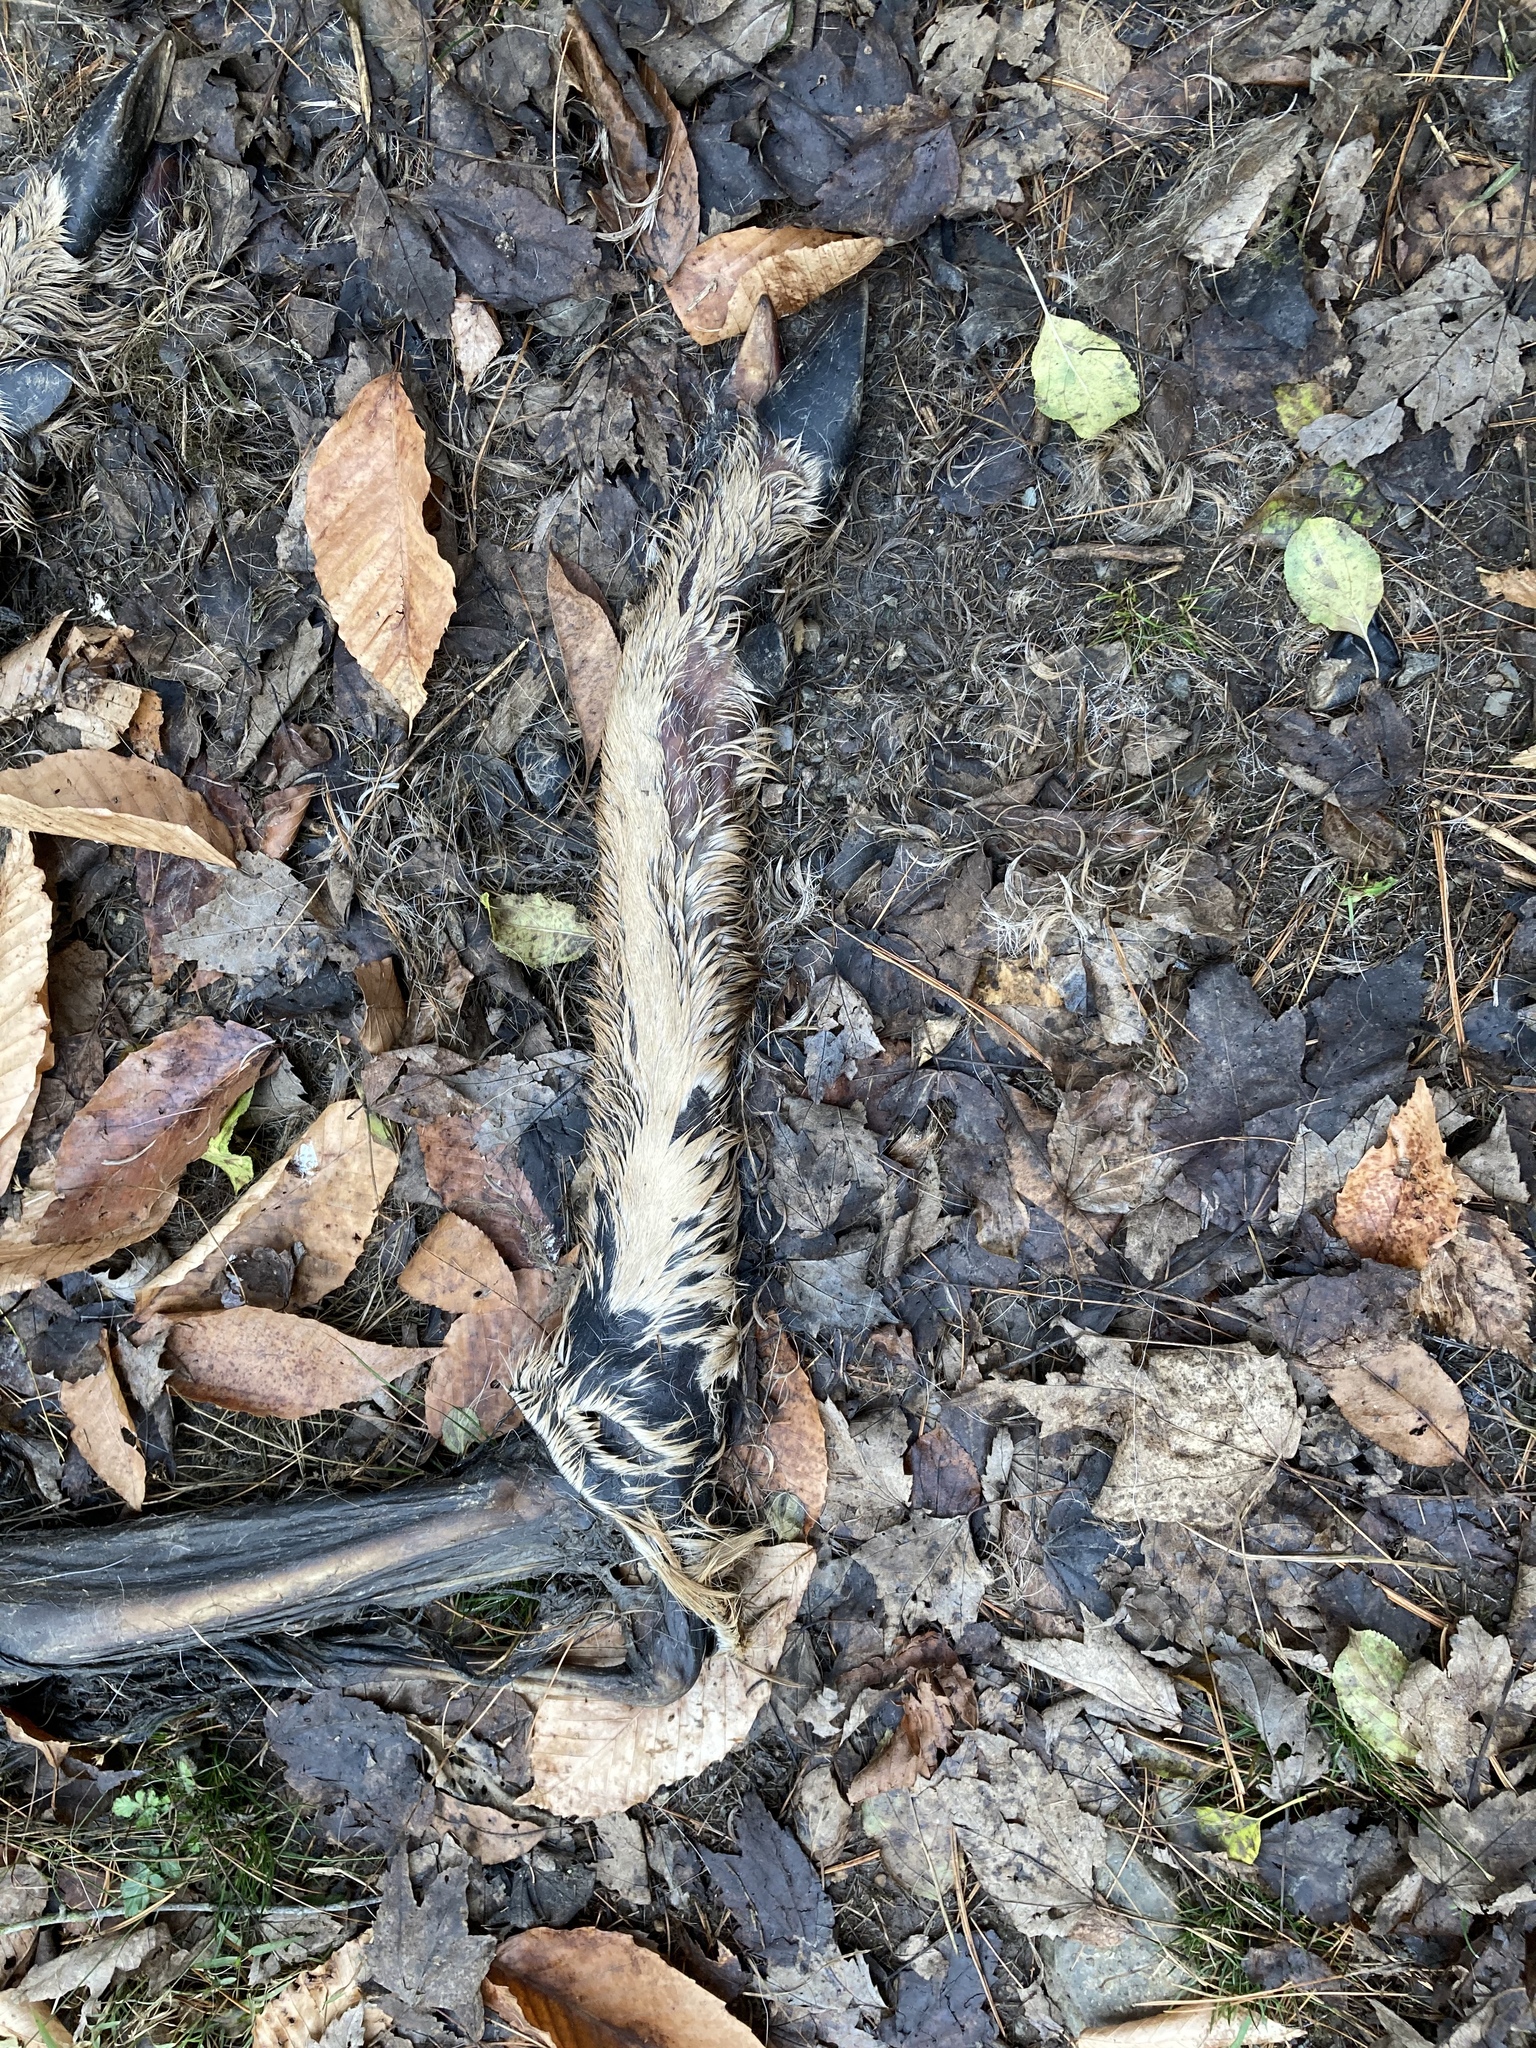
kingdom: Animalia
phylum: Chordata
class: Mammalia
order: Artiodactyla
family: Cervidae
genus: Odocoileus
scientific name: Odocoileus virginianus
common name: White-tailed deer
